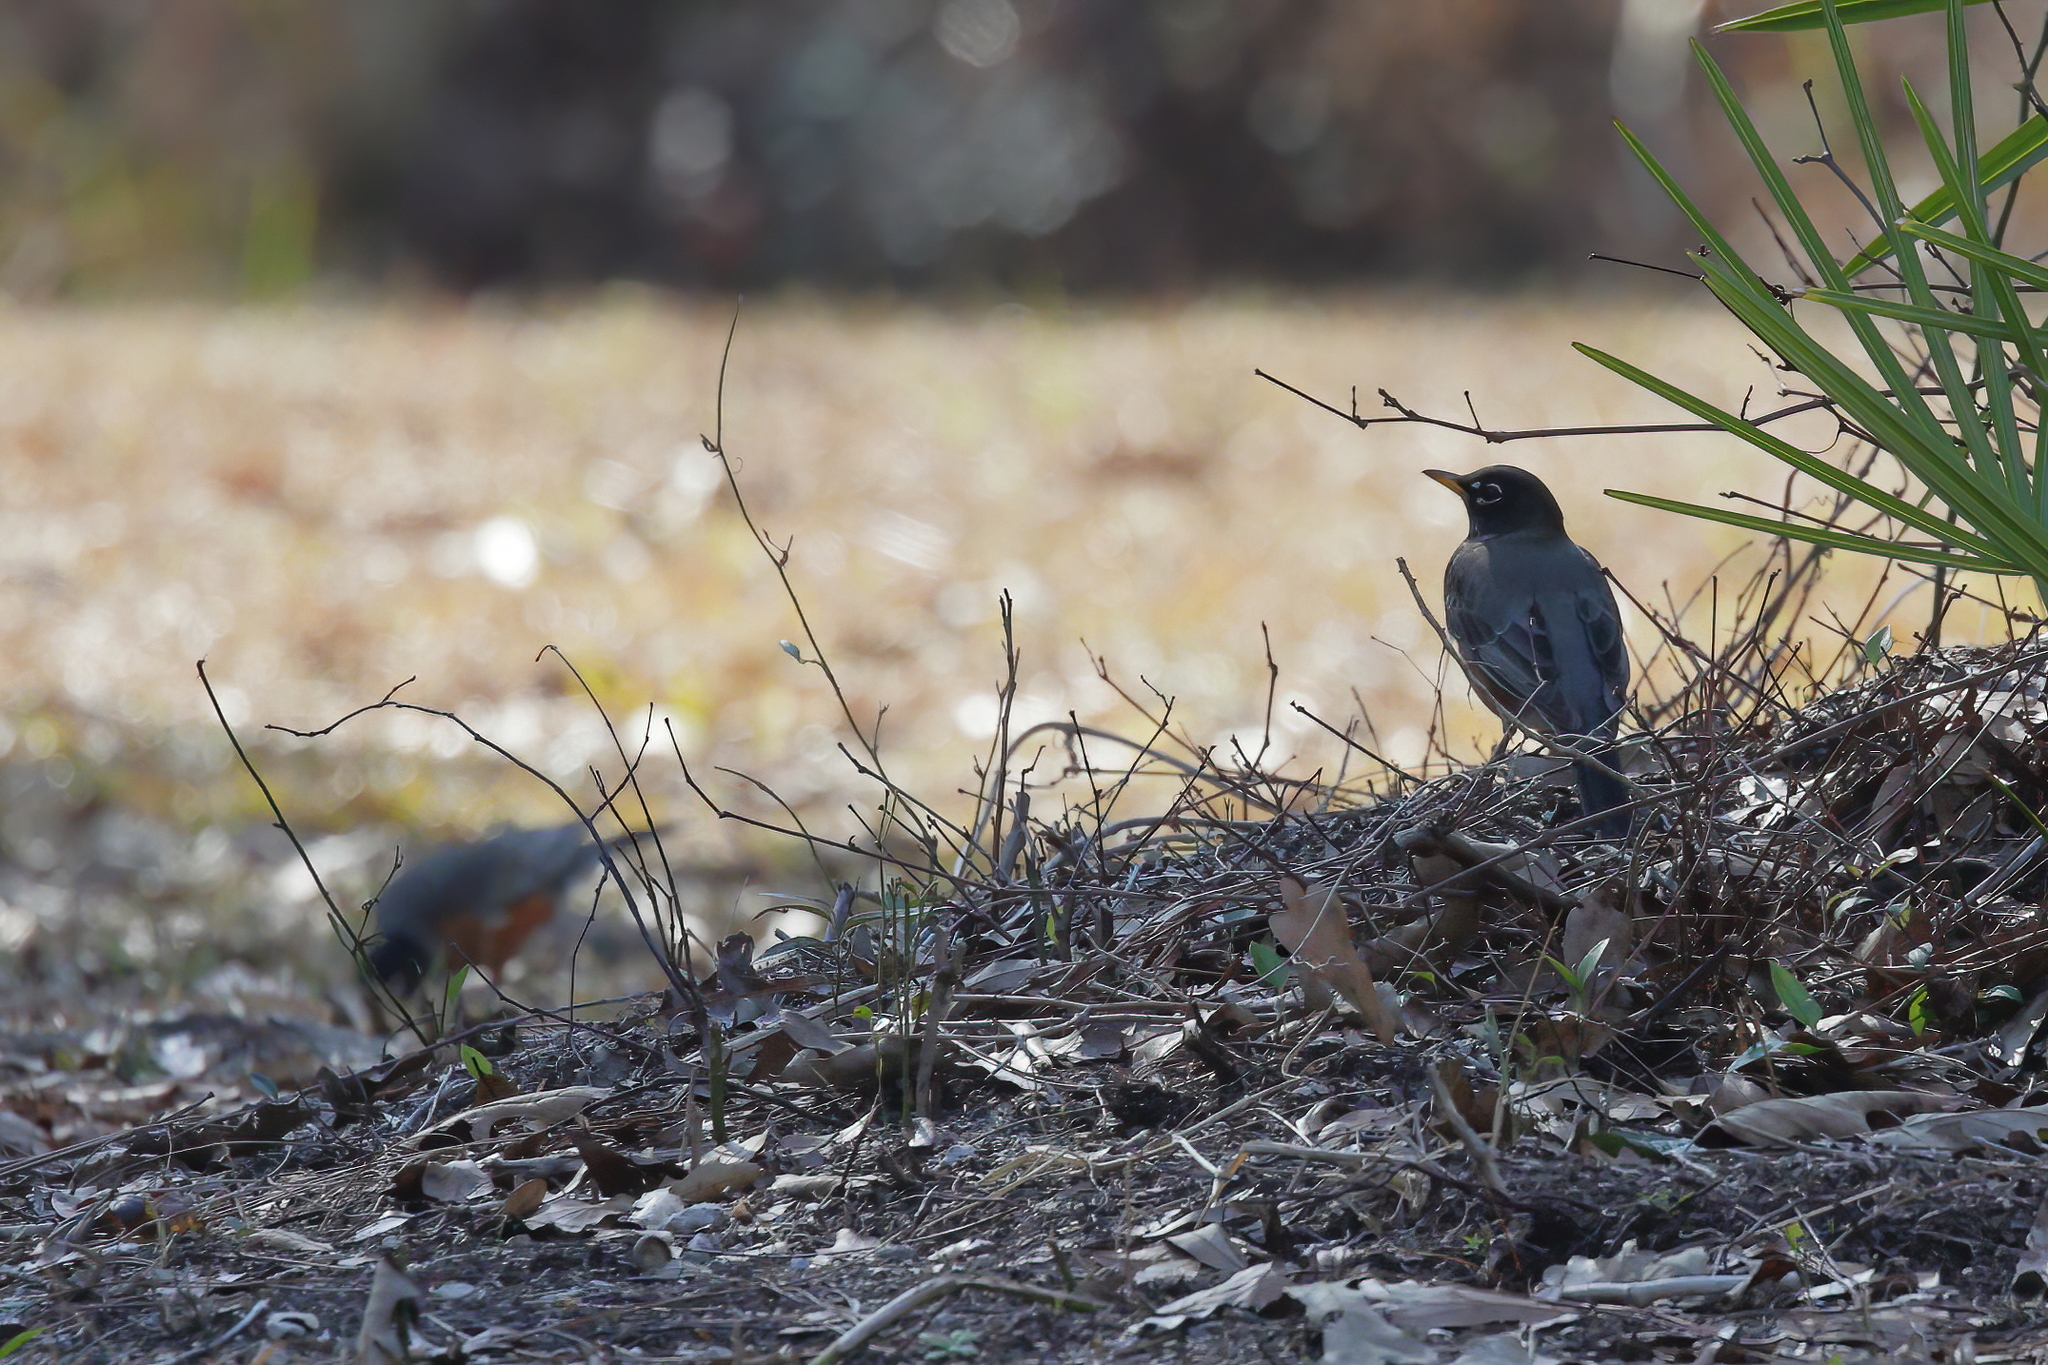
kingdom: Animalia
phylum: Chordata
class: Aves
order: Passeriformes
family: Turdidae
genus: Turdus
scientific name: Turdus migratorius
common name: American robin
